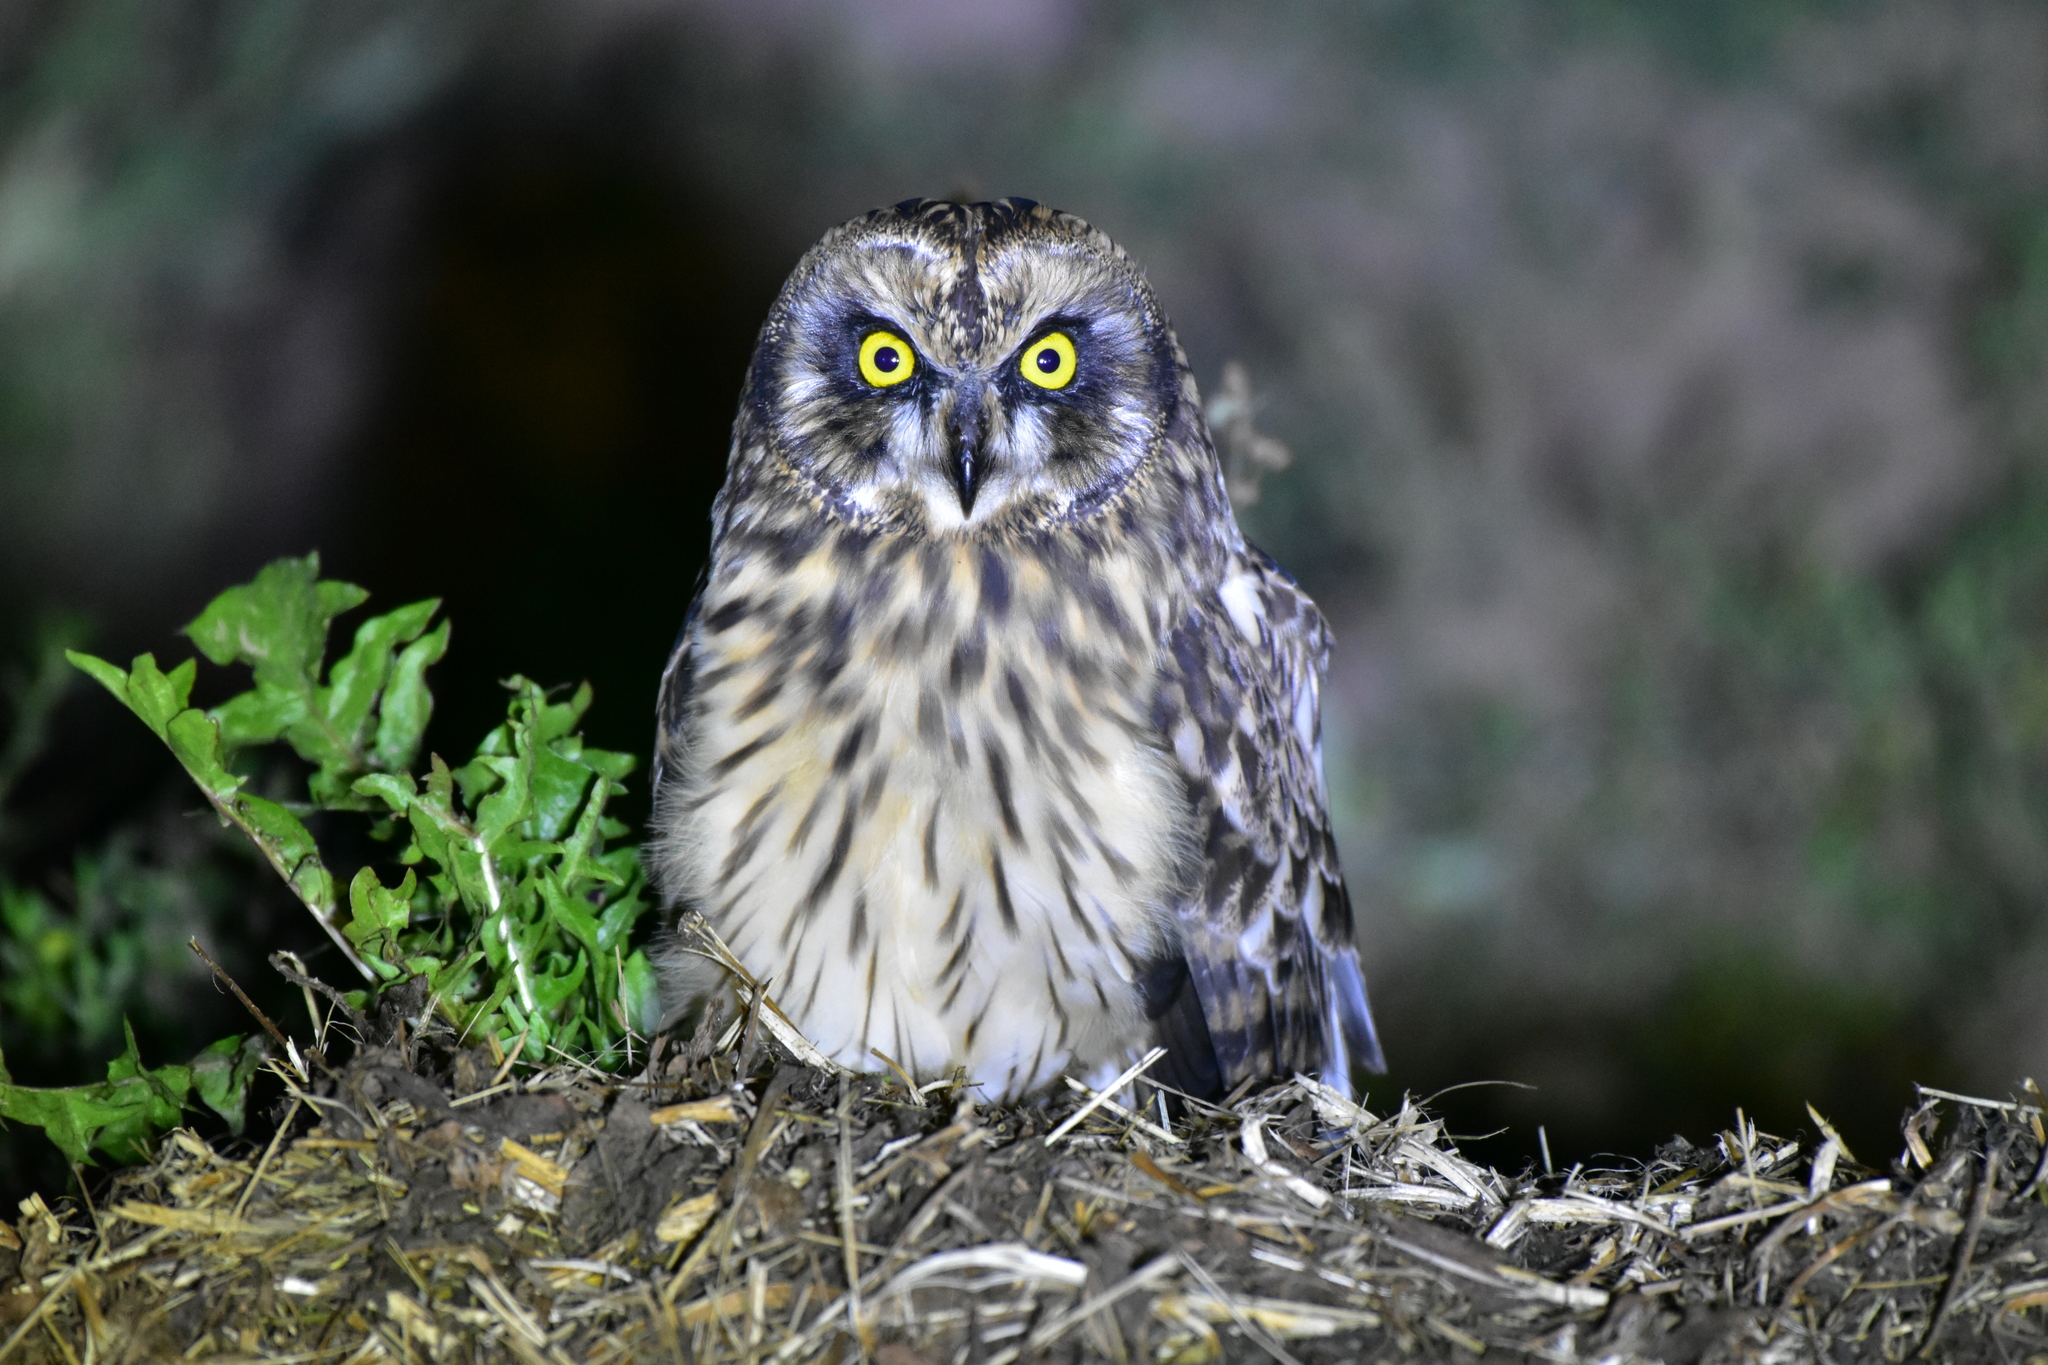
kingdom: Animalia
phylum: Chordata
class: Aves
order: Strigiformes
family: Strigidae
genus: Asio
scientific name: Asio flammeus
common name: Short-eared owl
